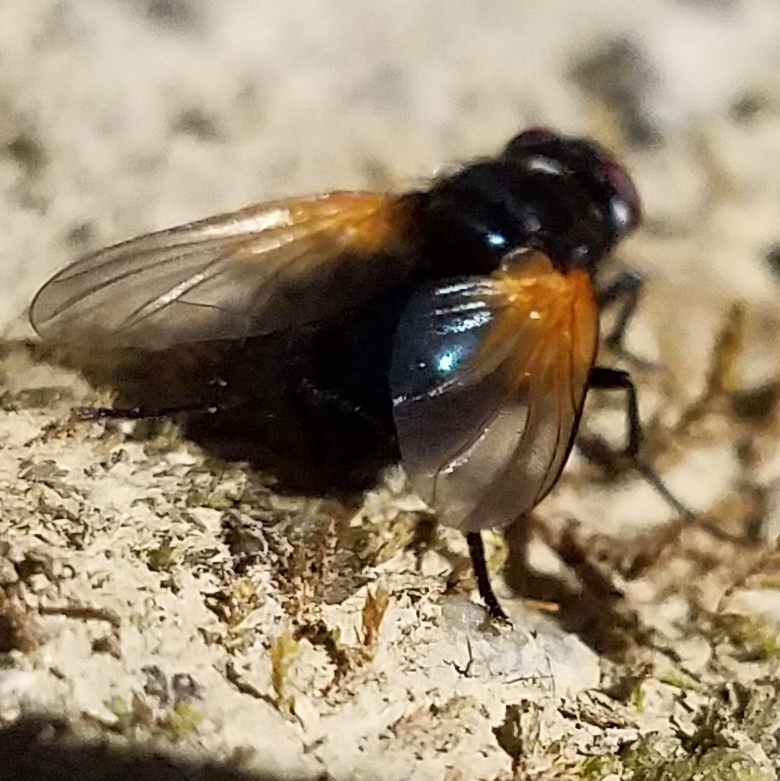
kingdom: Animalia
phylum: Arthropoda
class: Insecta
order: Diptera
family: Muscidae
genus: Mesembrina
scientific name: Mesembrina latreillii
